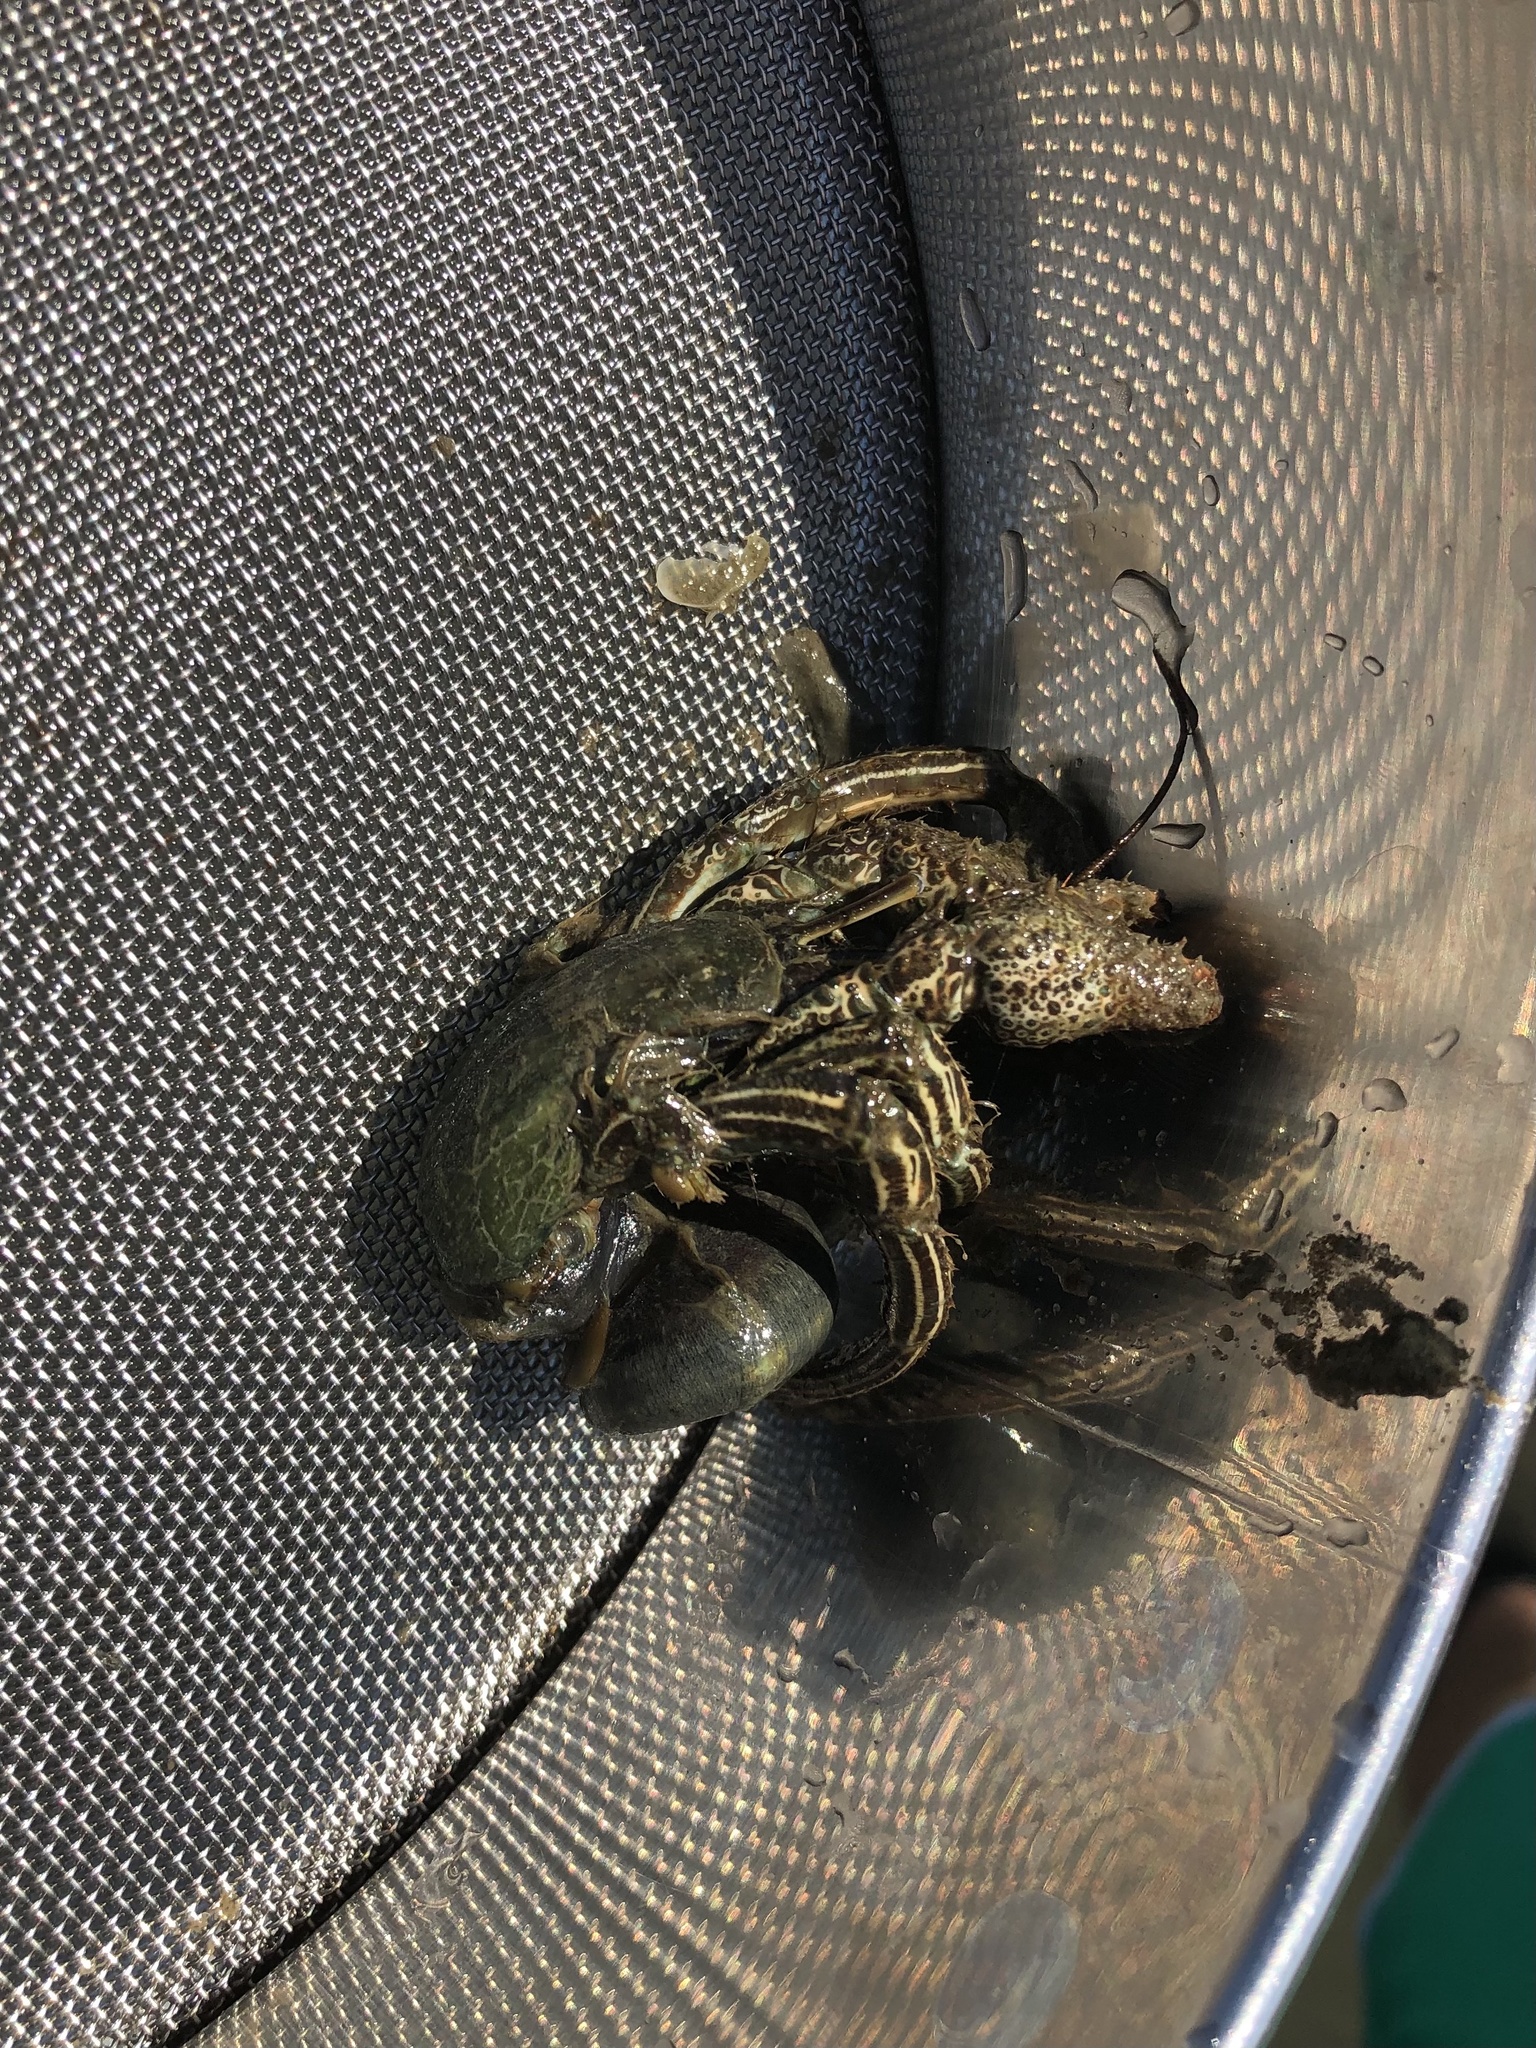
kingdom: Animalia
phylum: Arthropoda
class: Malacostraca
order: Decapoda
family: Diogenidae
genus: Clibanarius
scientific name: Clibanarius vittatus
